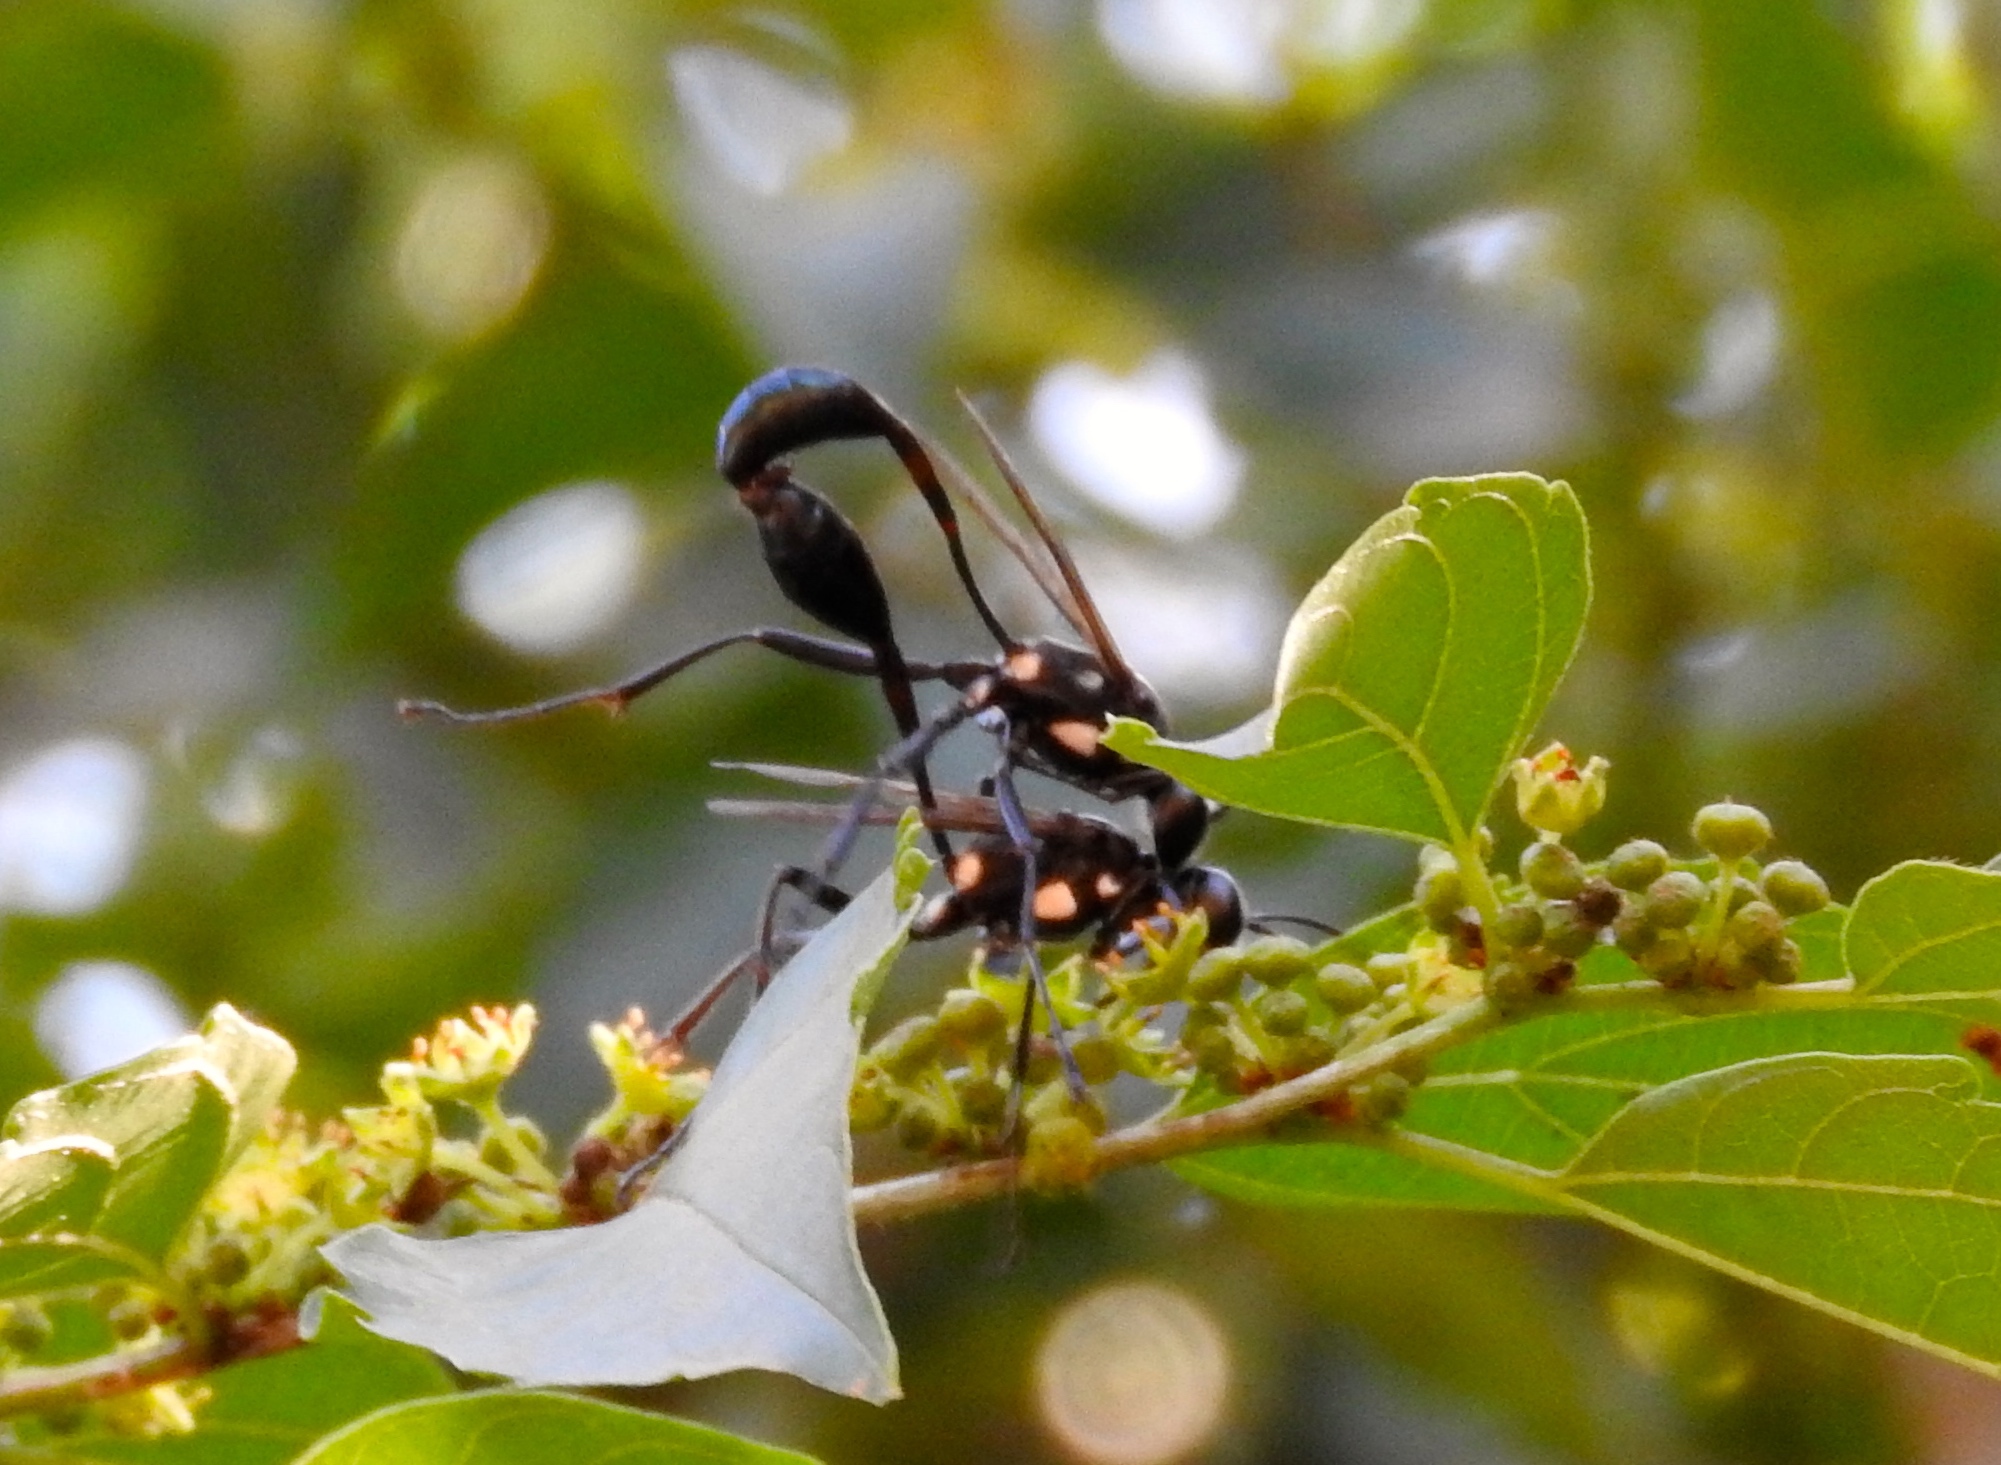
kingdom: Animalia
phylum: Arthropoda
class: Insecta
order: Hymenoptera
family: Sphecidae
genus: Eremnophila
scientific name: Eremnophila aureonotata
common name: Gold-marked thread-waisted wasp
